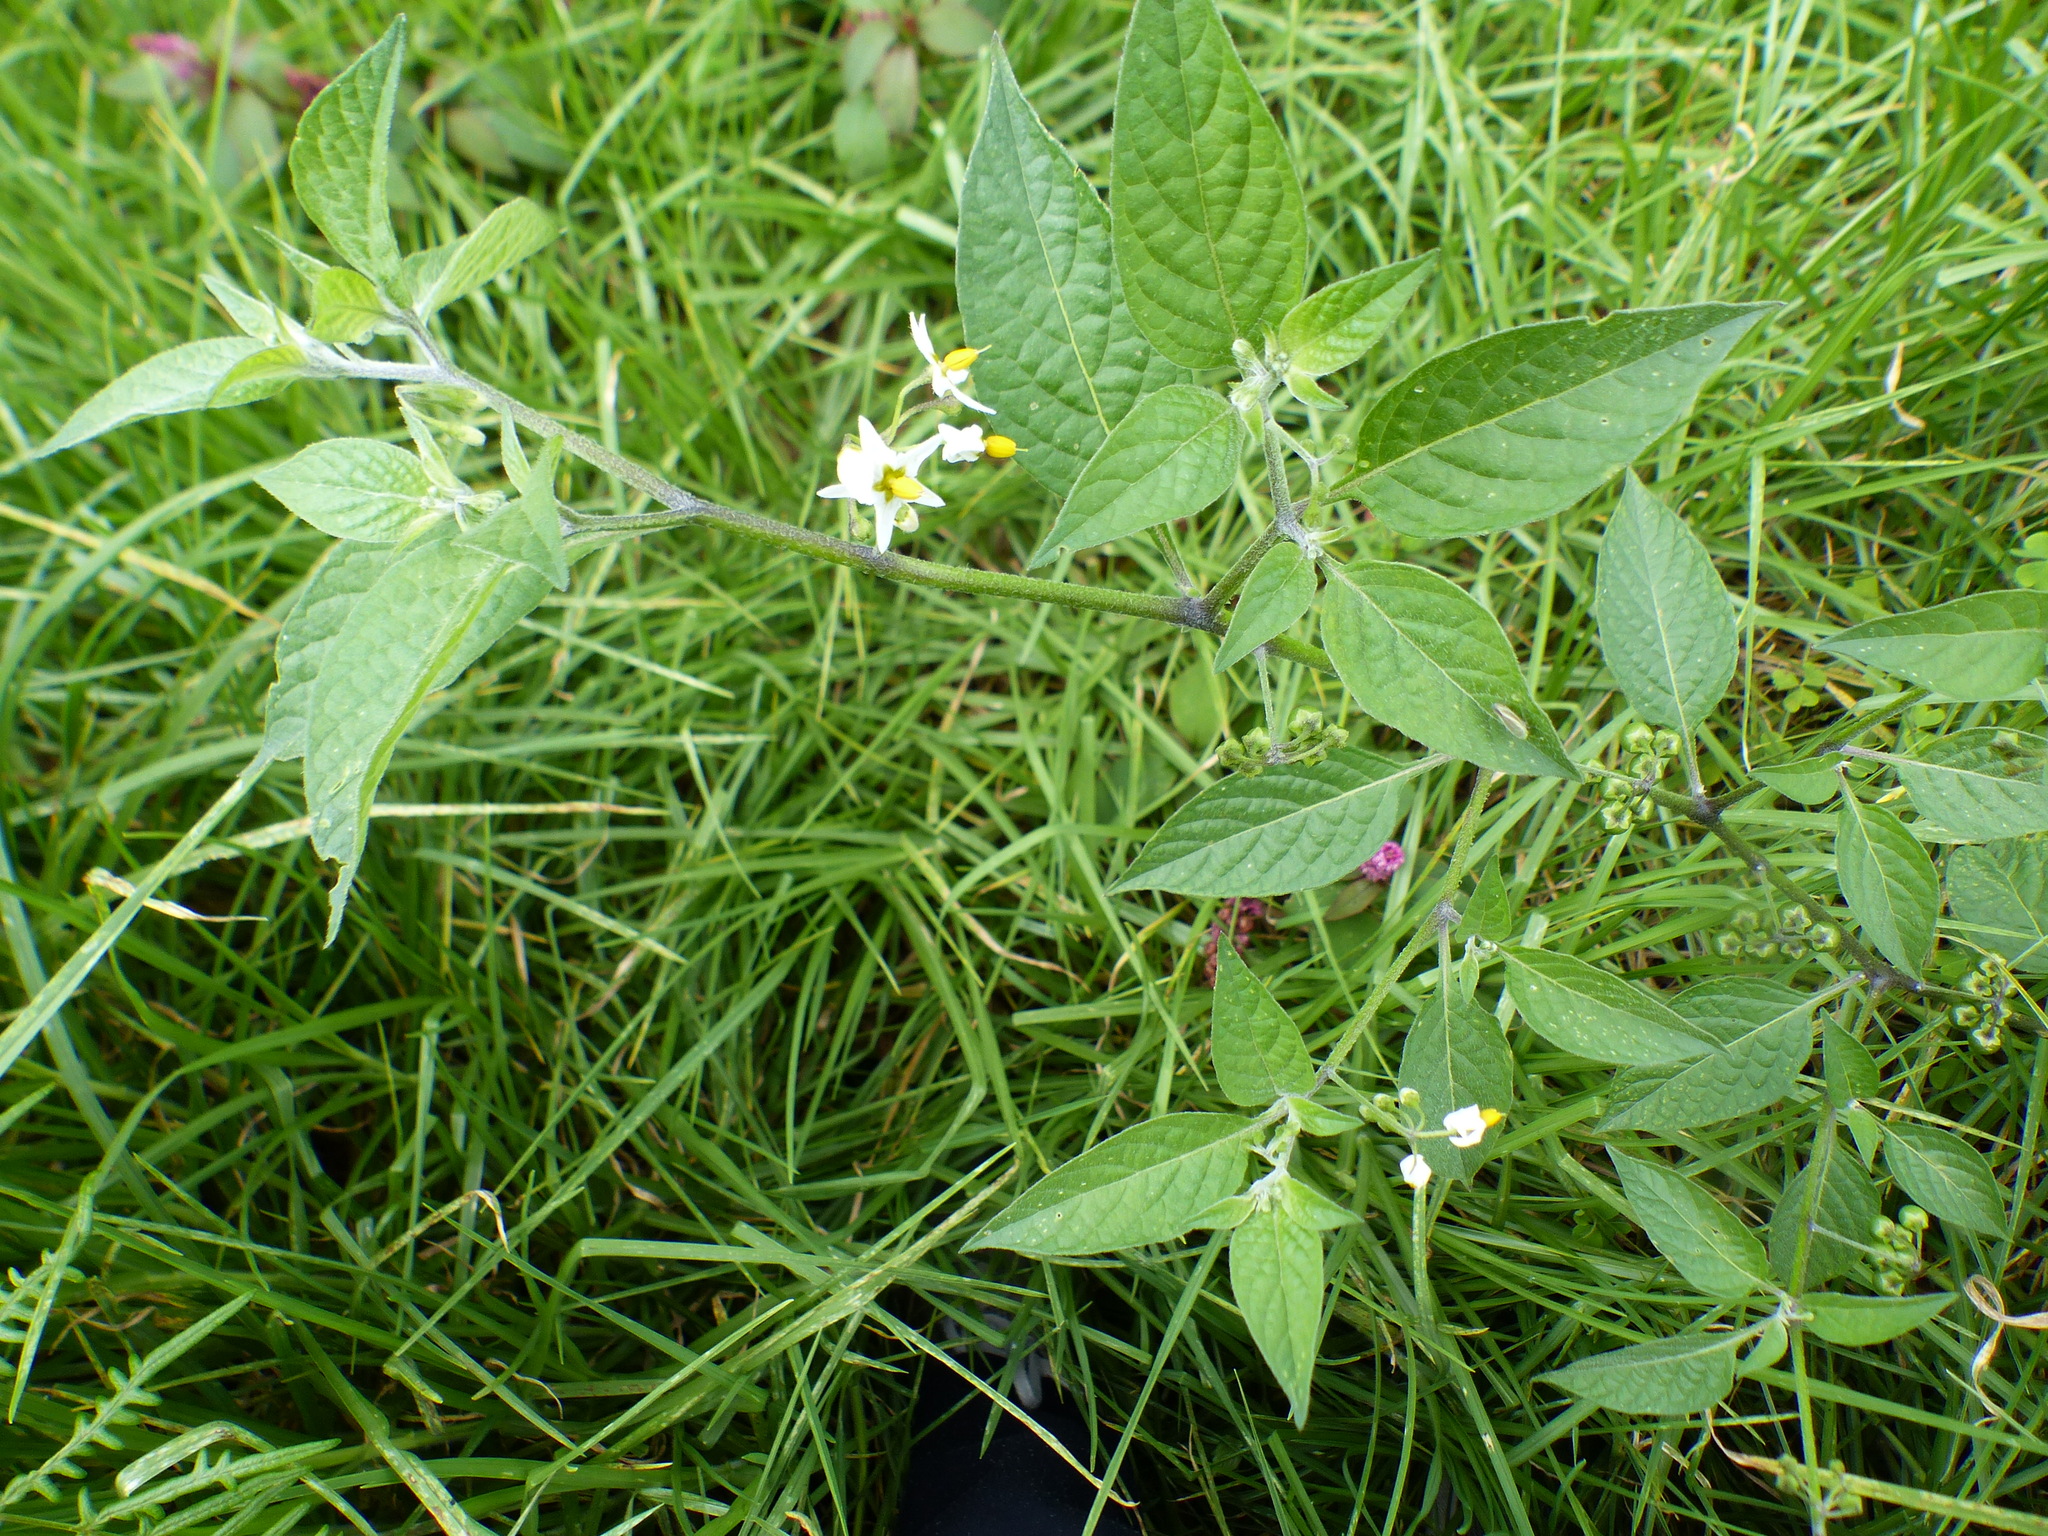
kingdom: Plantae
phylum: Tracheophyta
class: Magnoliopsida
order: Solanales
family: Solanaceae
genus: Solanum
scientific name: Solanum nigrescens
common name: Divine nightshade
